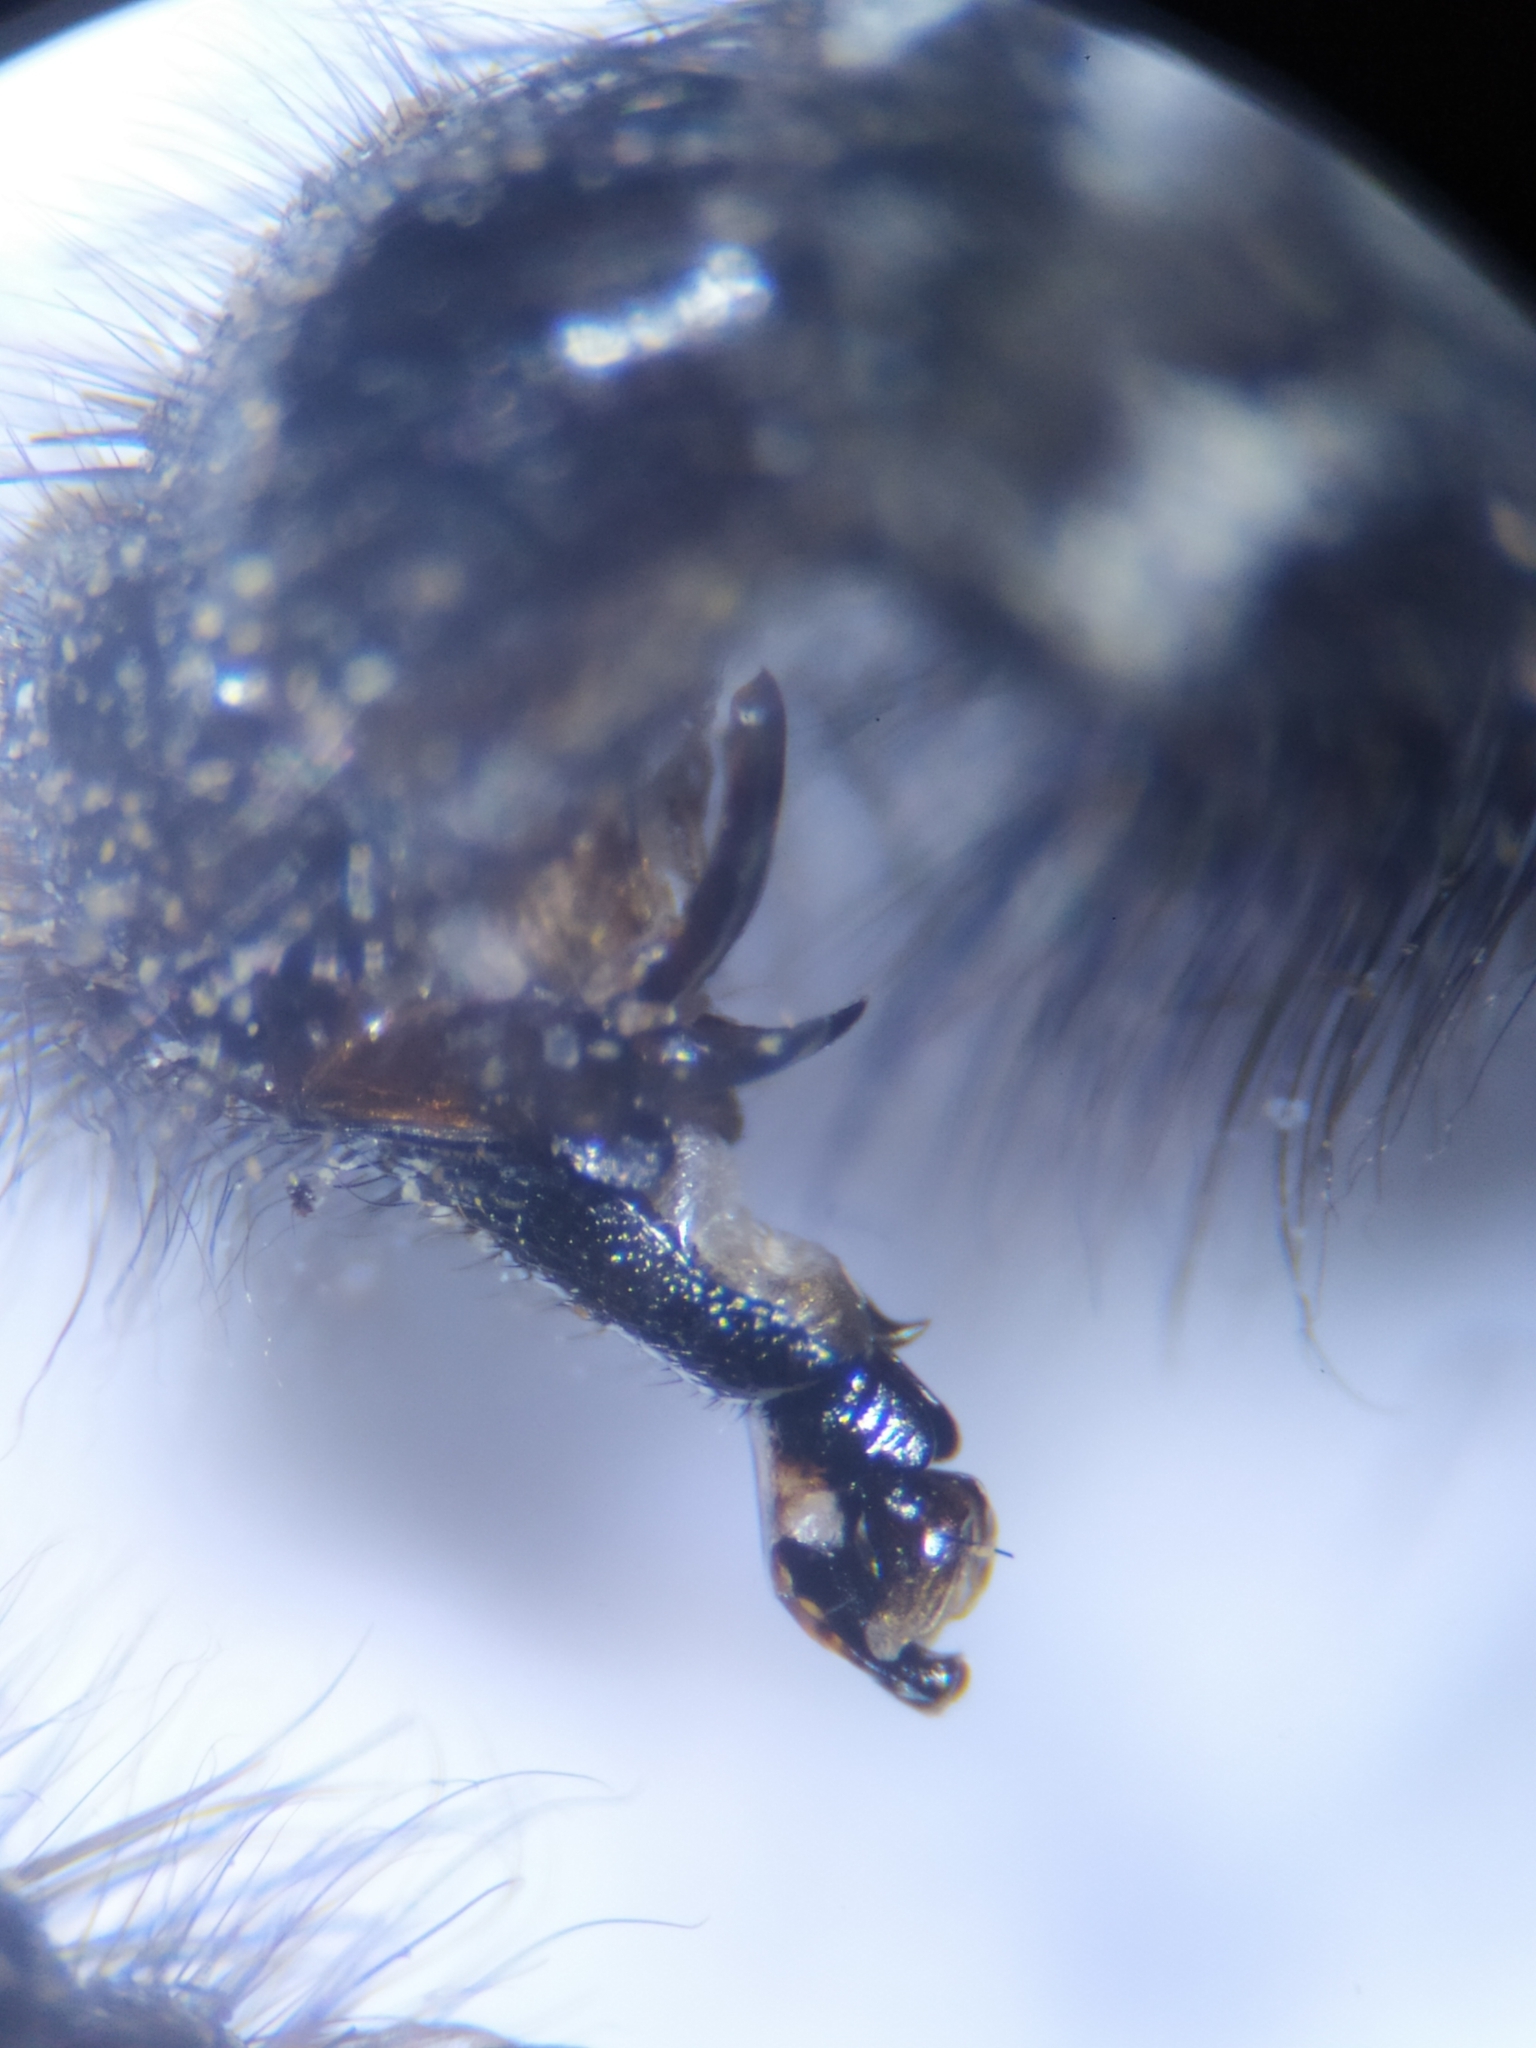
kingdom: Animalia
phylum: Arthropoda
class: Insecta
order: Diptera
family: Sarcophagidae
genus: Sarcophaga
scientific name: Sarcophaga carnaria
